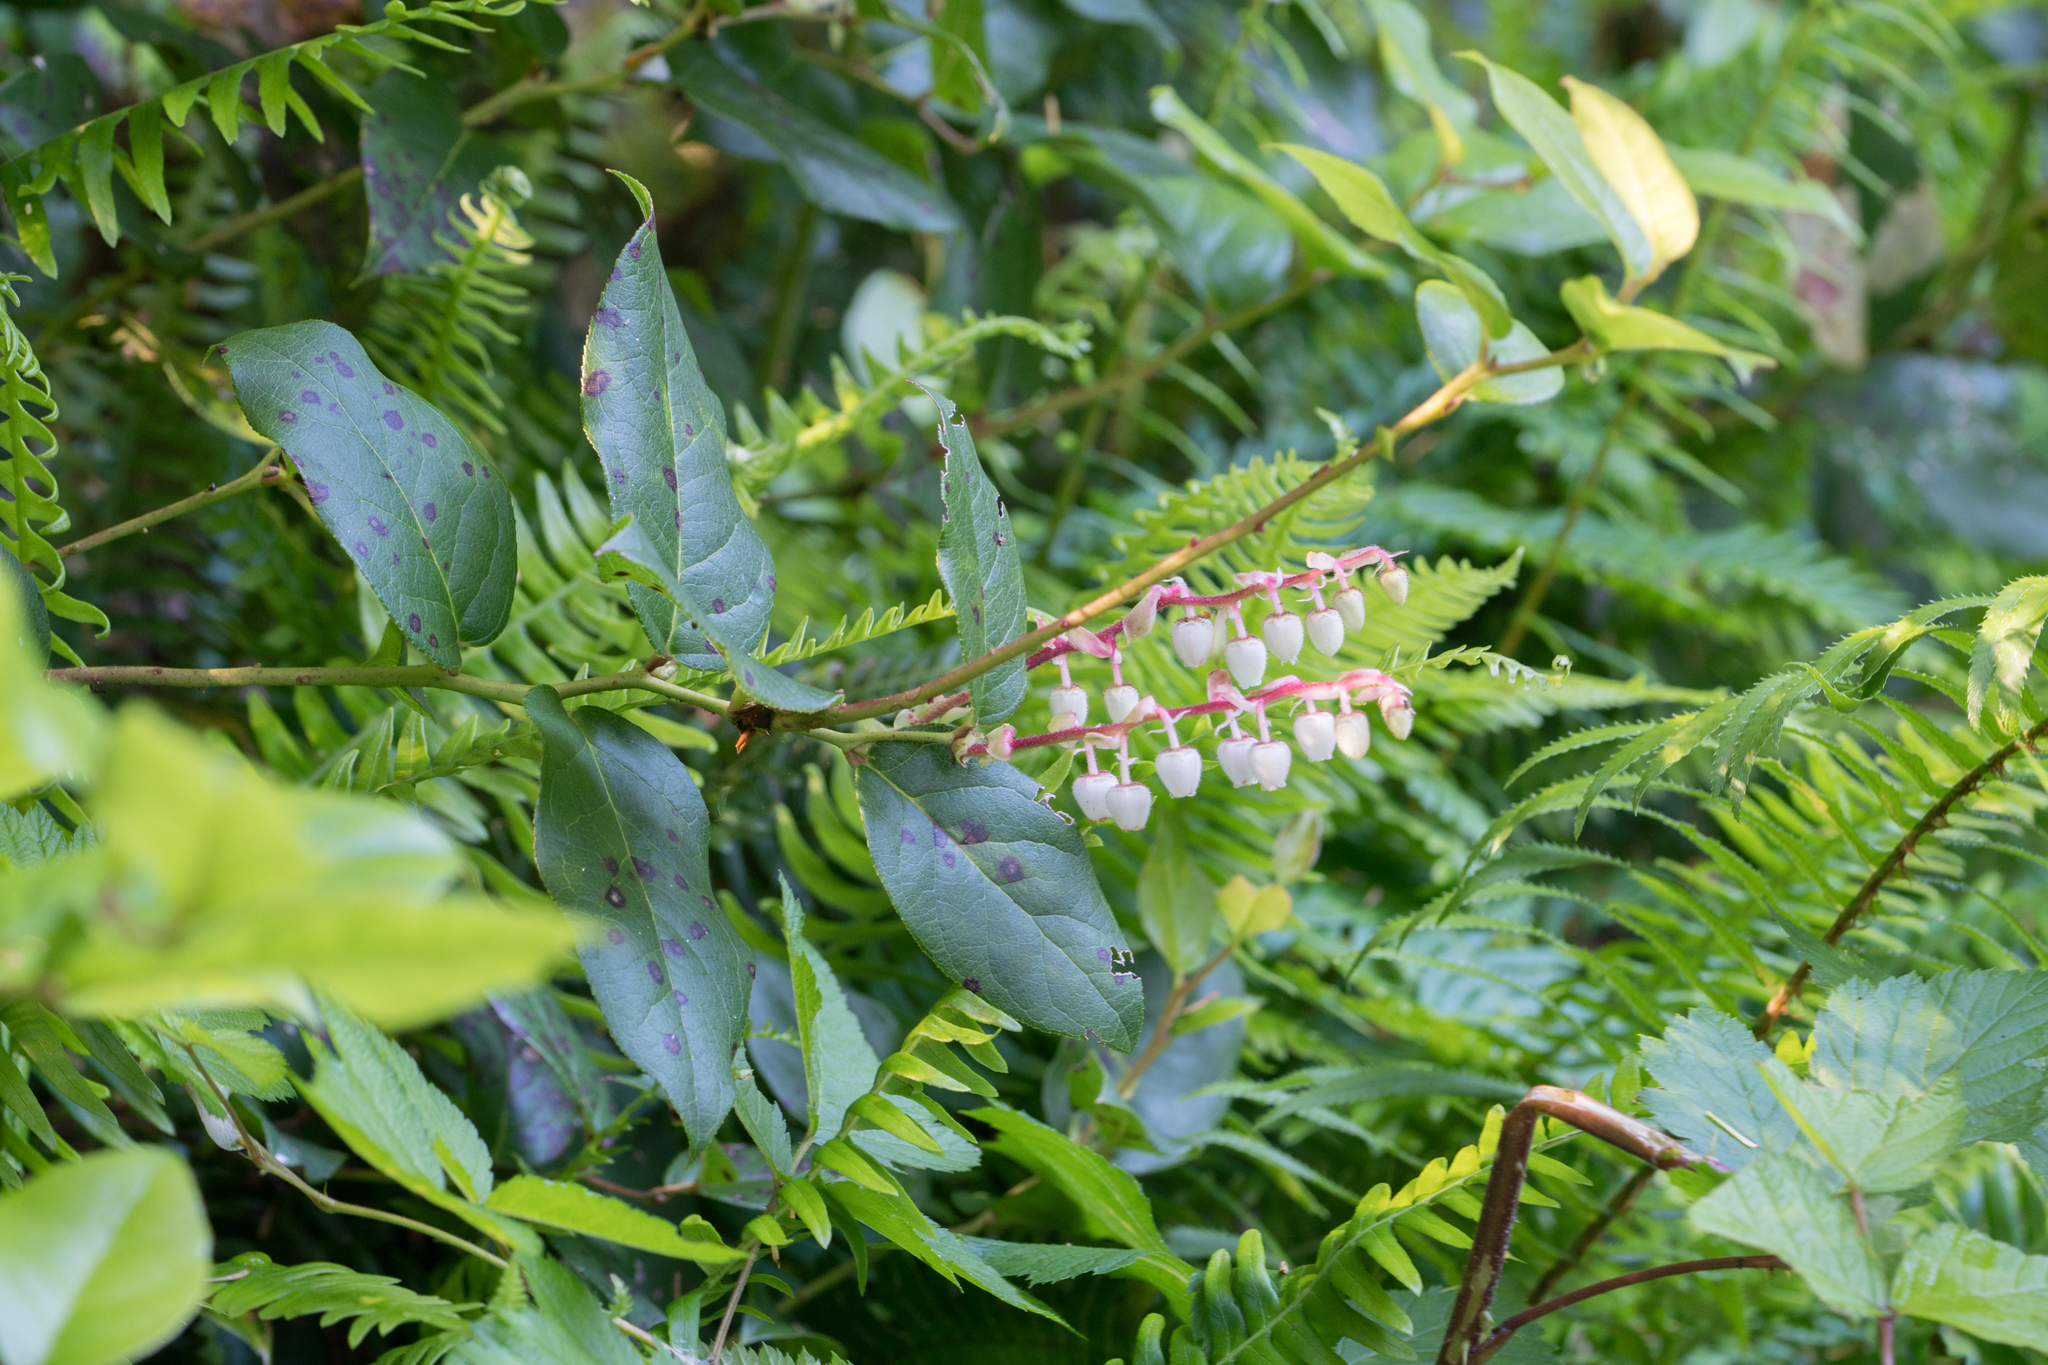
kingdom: Plantae
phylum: Tracheophyta
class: Magnoliopsida
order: Ericales
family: Ericaceae
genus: Gaultheria
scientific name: Gaultheria shallon
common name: Shallon
